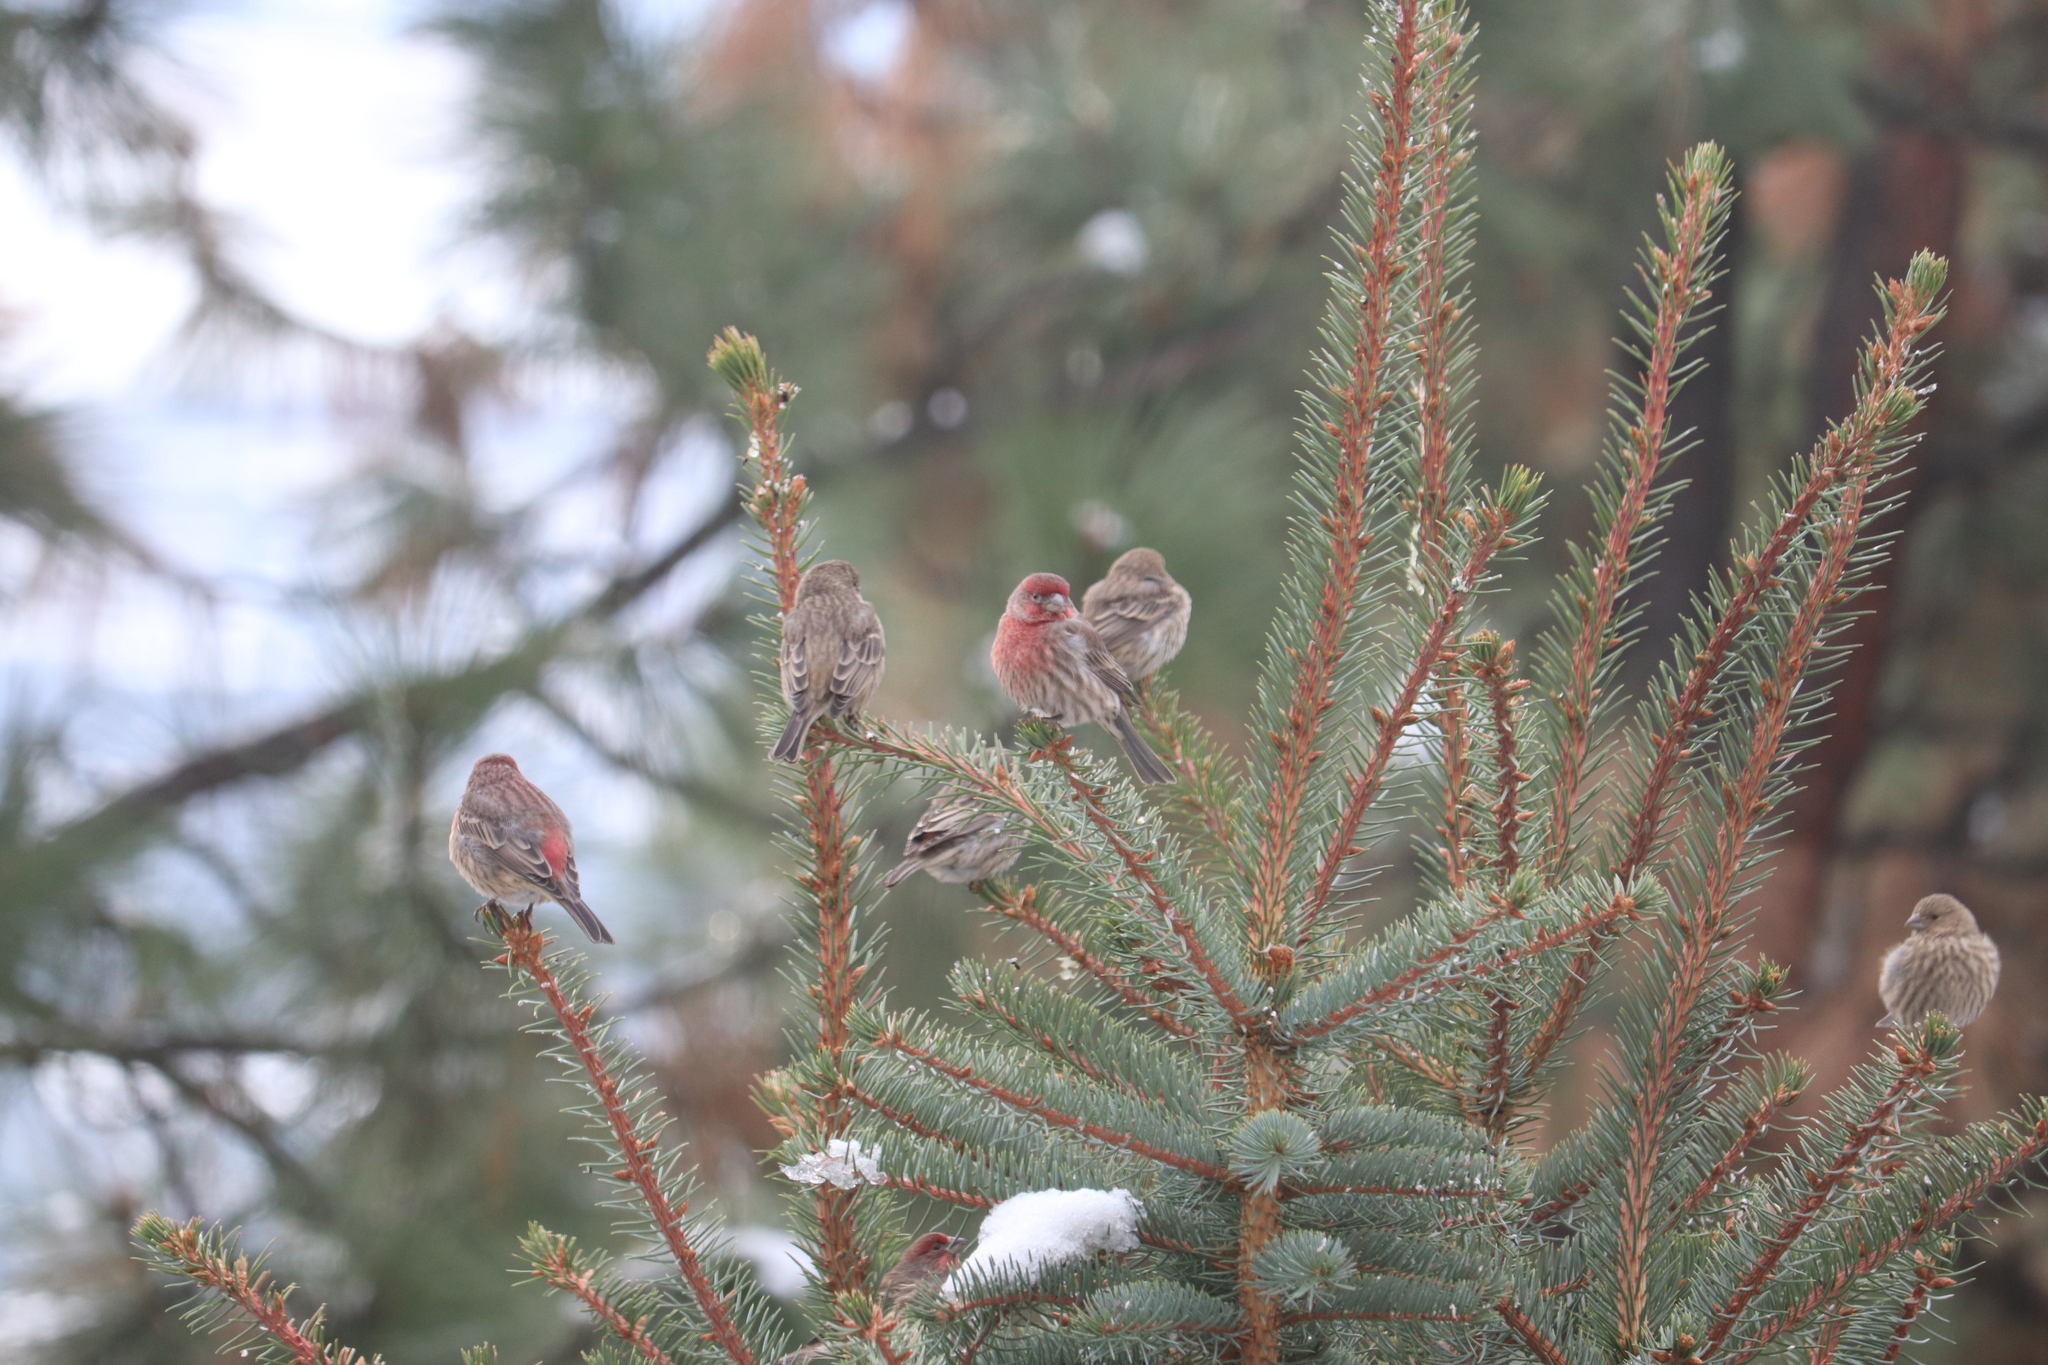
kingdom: Animalia
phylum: Chordata
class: Aves
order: Passeriformes
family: Fringillidae
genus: Haemorhous
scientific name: Haemorhous mexicanus
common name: House finch
